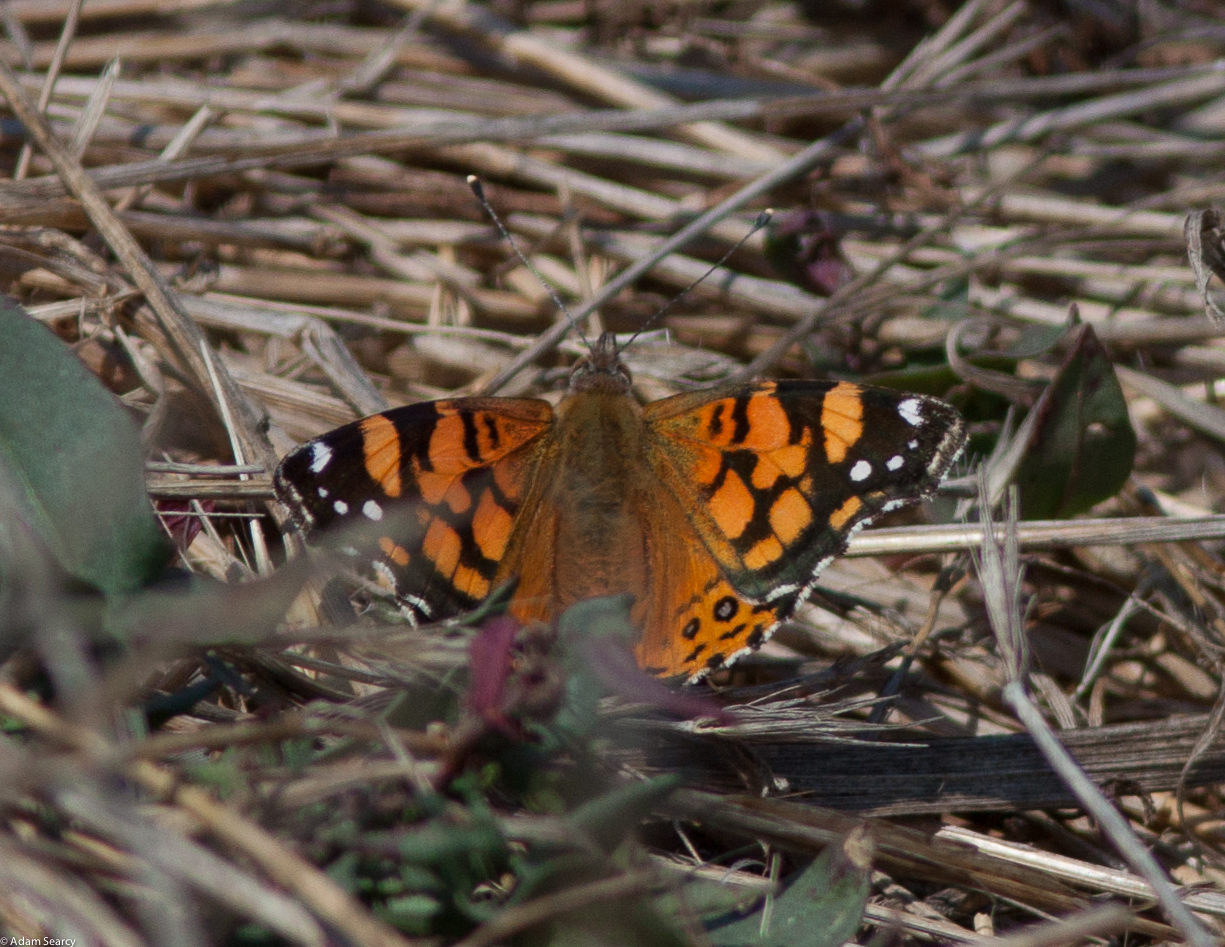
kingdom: Animalia
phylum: Arthropoda
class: Insecta
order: Lepidoptera
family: Nymphalidae
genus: Vanessa
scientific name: Vanessa annabella
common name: West coast lady
